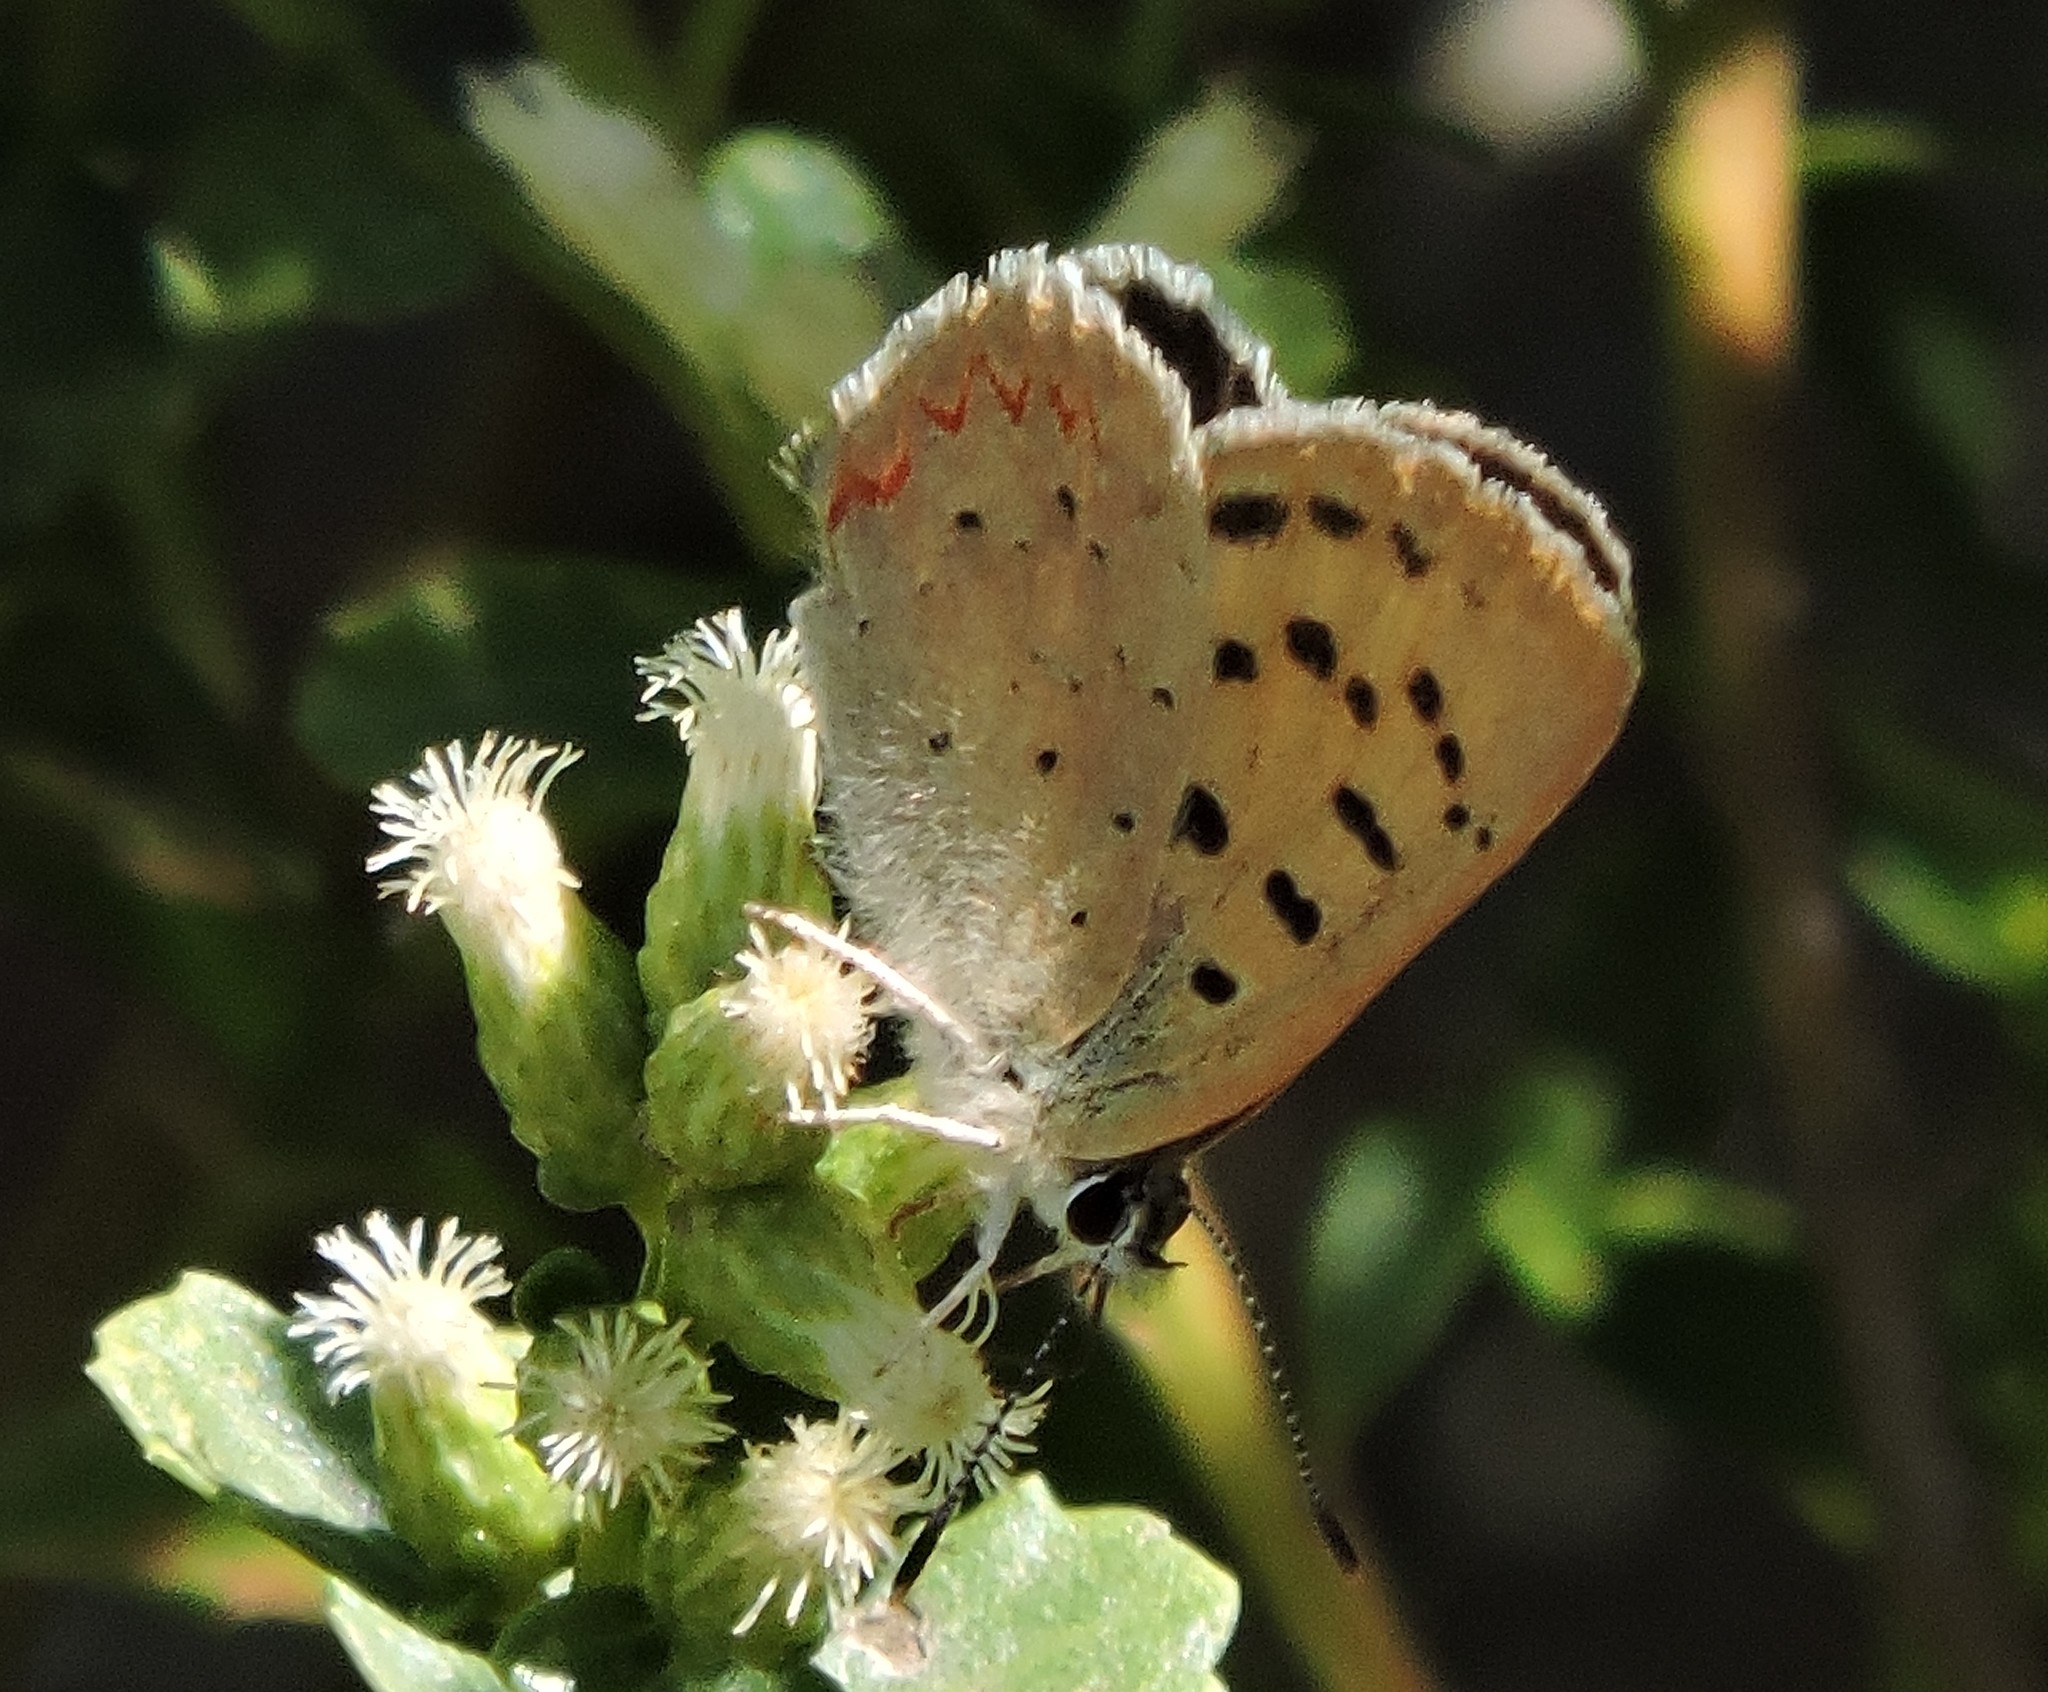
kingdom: Animalia
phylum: Arthropoda
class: Insecta
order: Lepidoptera
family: Lycaenidae
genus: Tharsalea
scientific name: Tharsalea helloides
